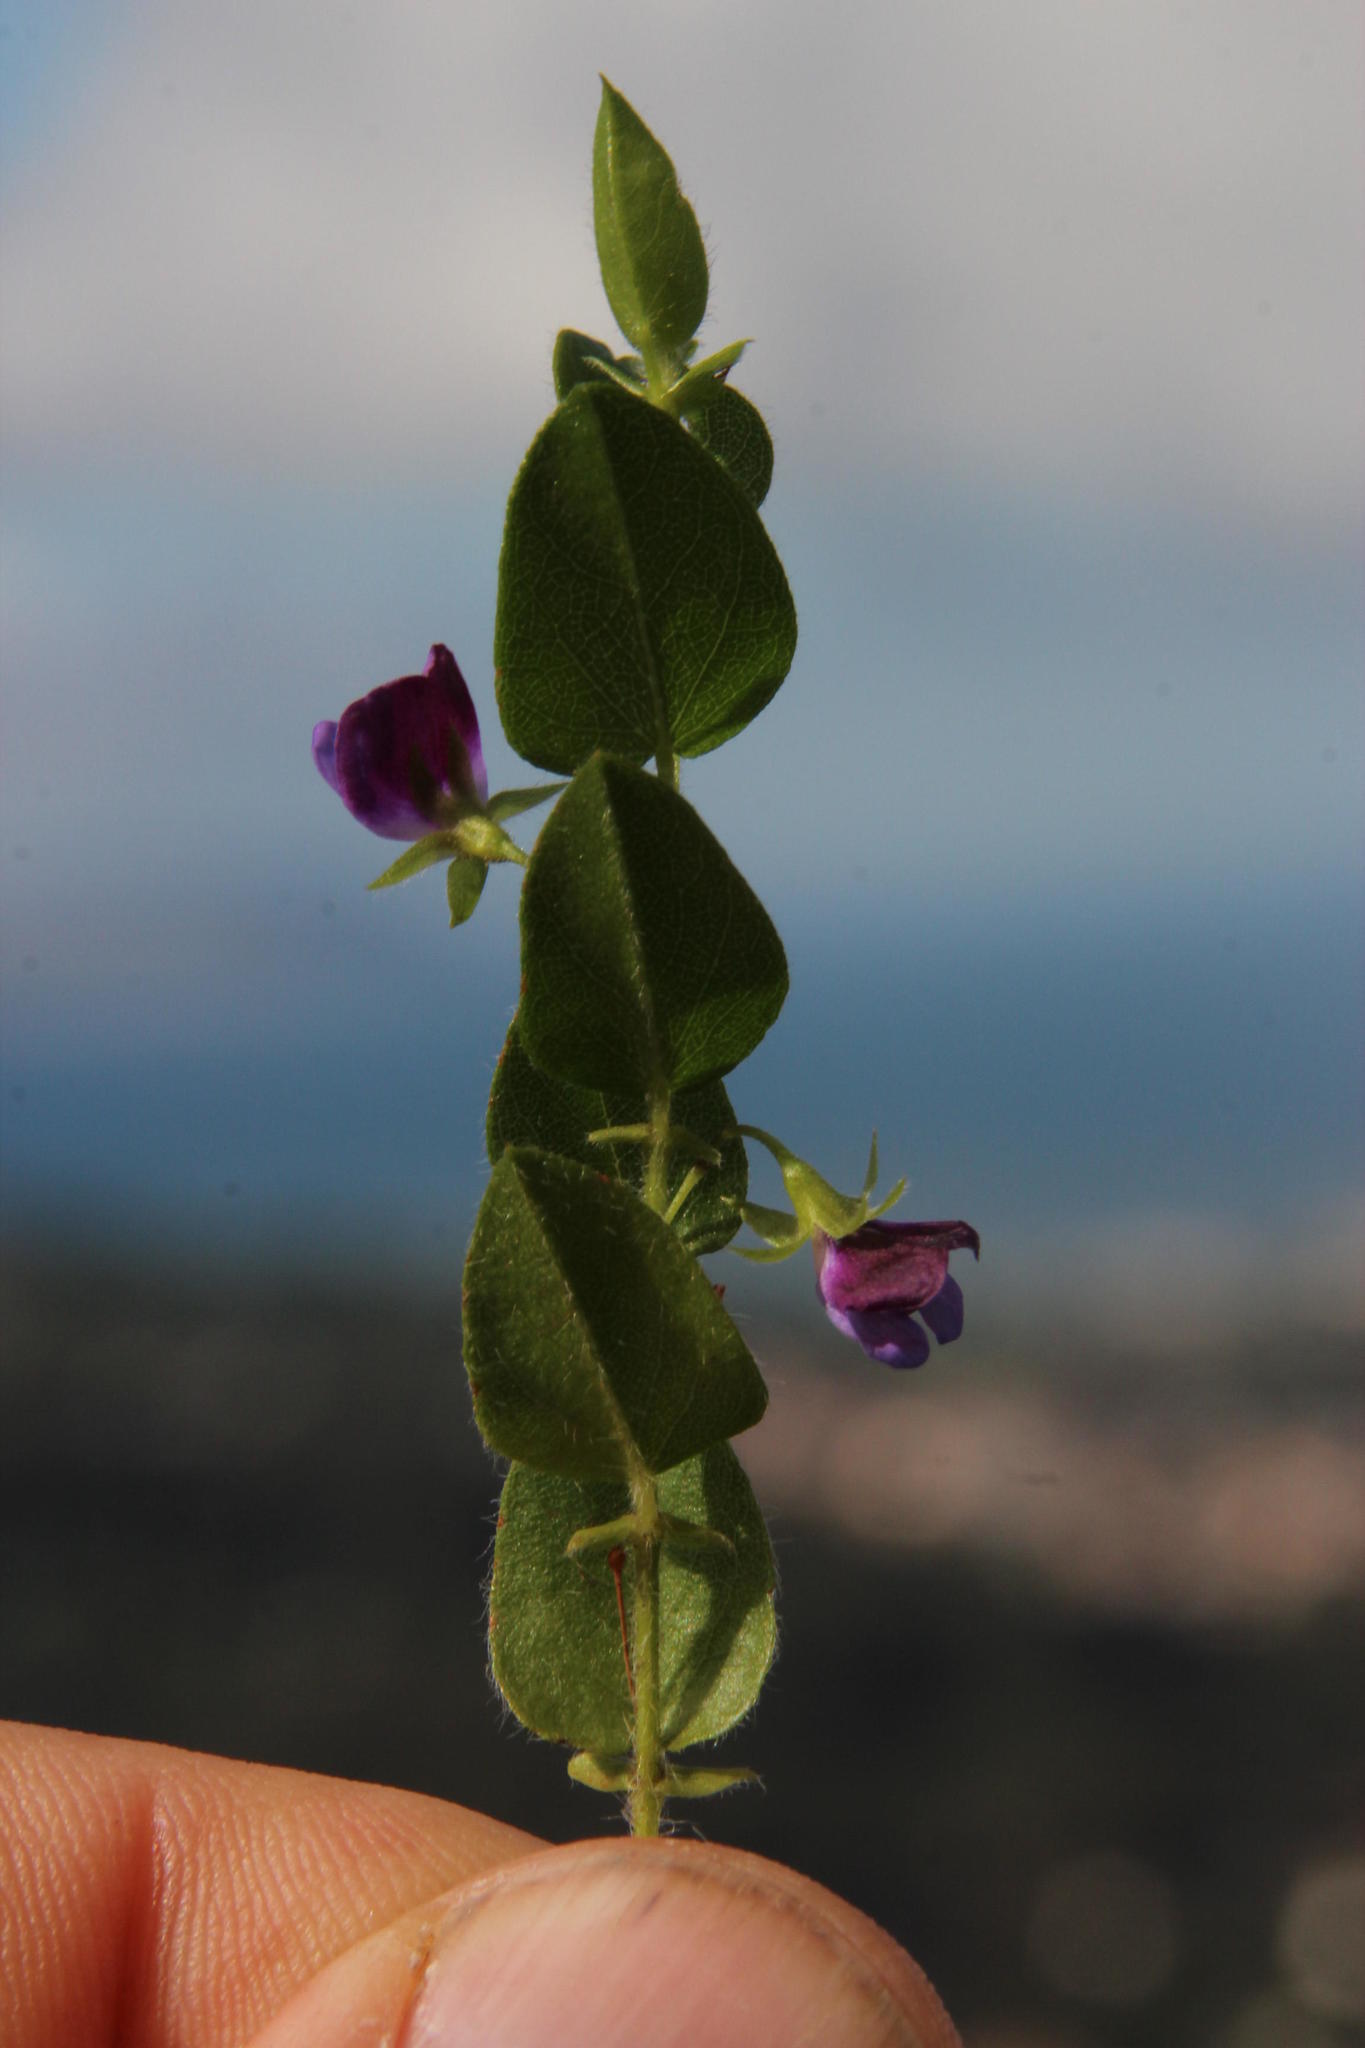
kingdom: Plantae
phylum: Tracheophyta
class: Magnoliopsida
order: Fabales
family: Fabaceae
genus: Psoralea
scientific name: Psoralea asarina
